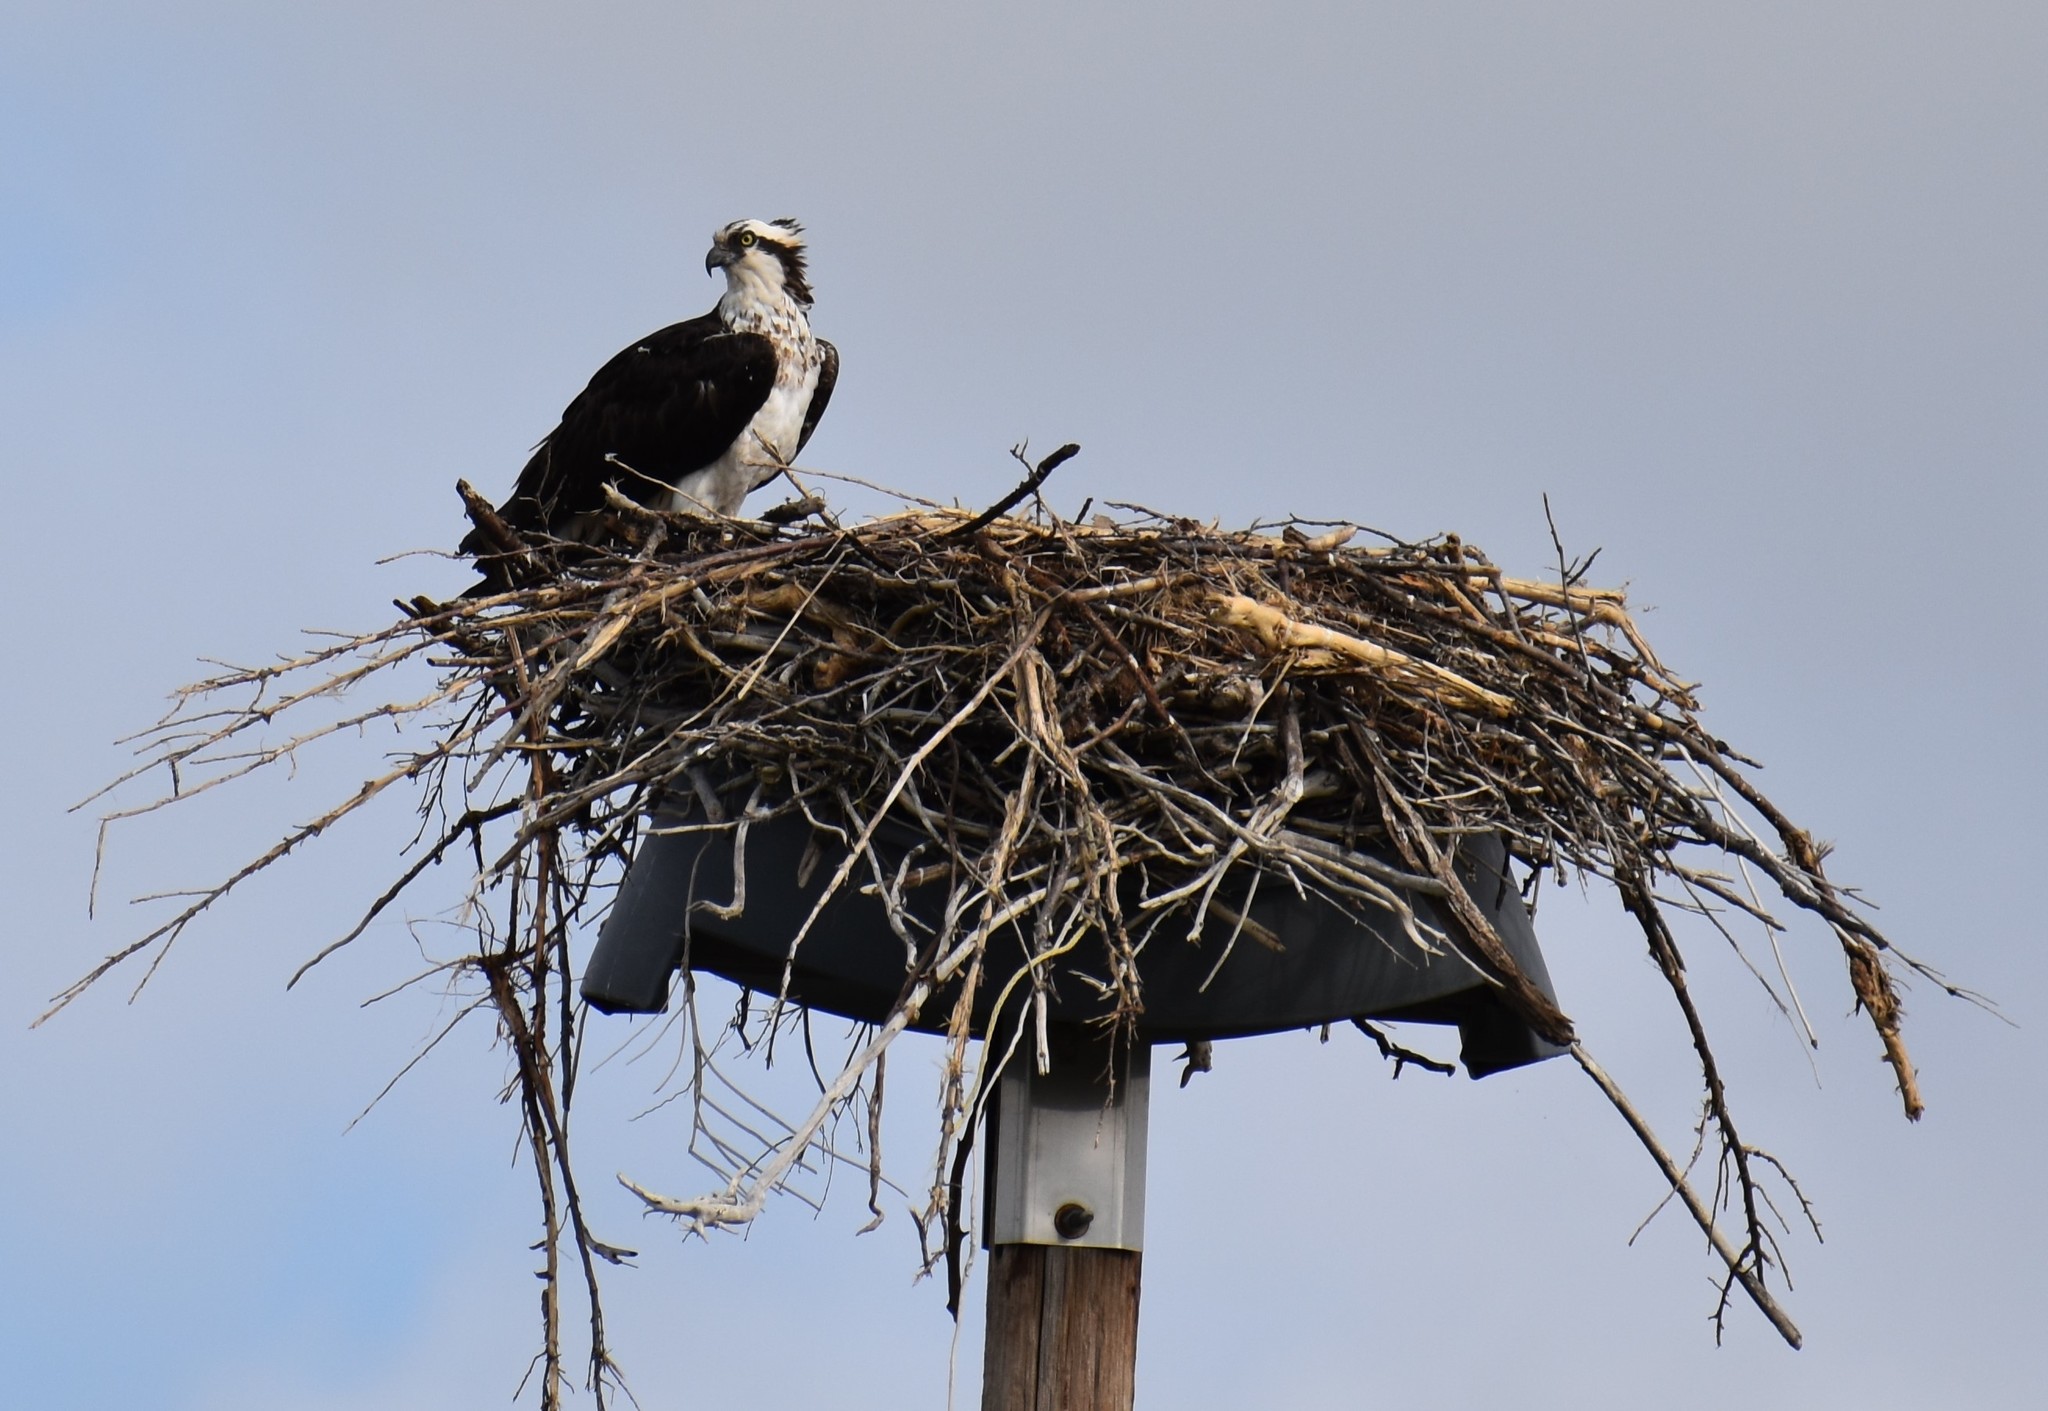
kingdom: Animalia
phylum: Chordata
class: Aves
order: Accipitriformes
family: Pandionidae
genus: Pandion
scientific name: Pandion haliaetus
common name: Osprey
